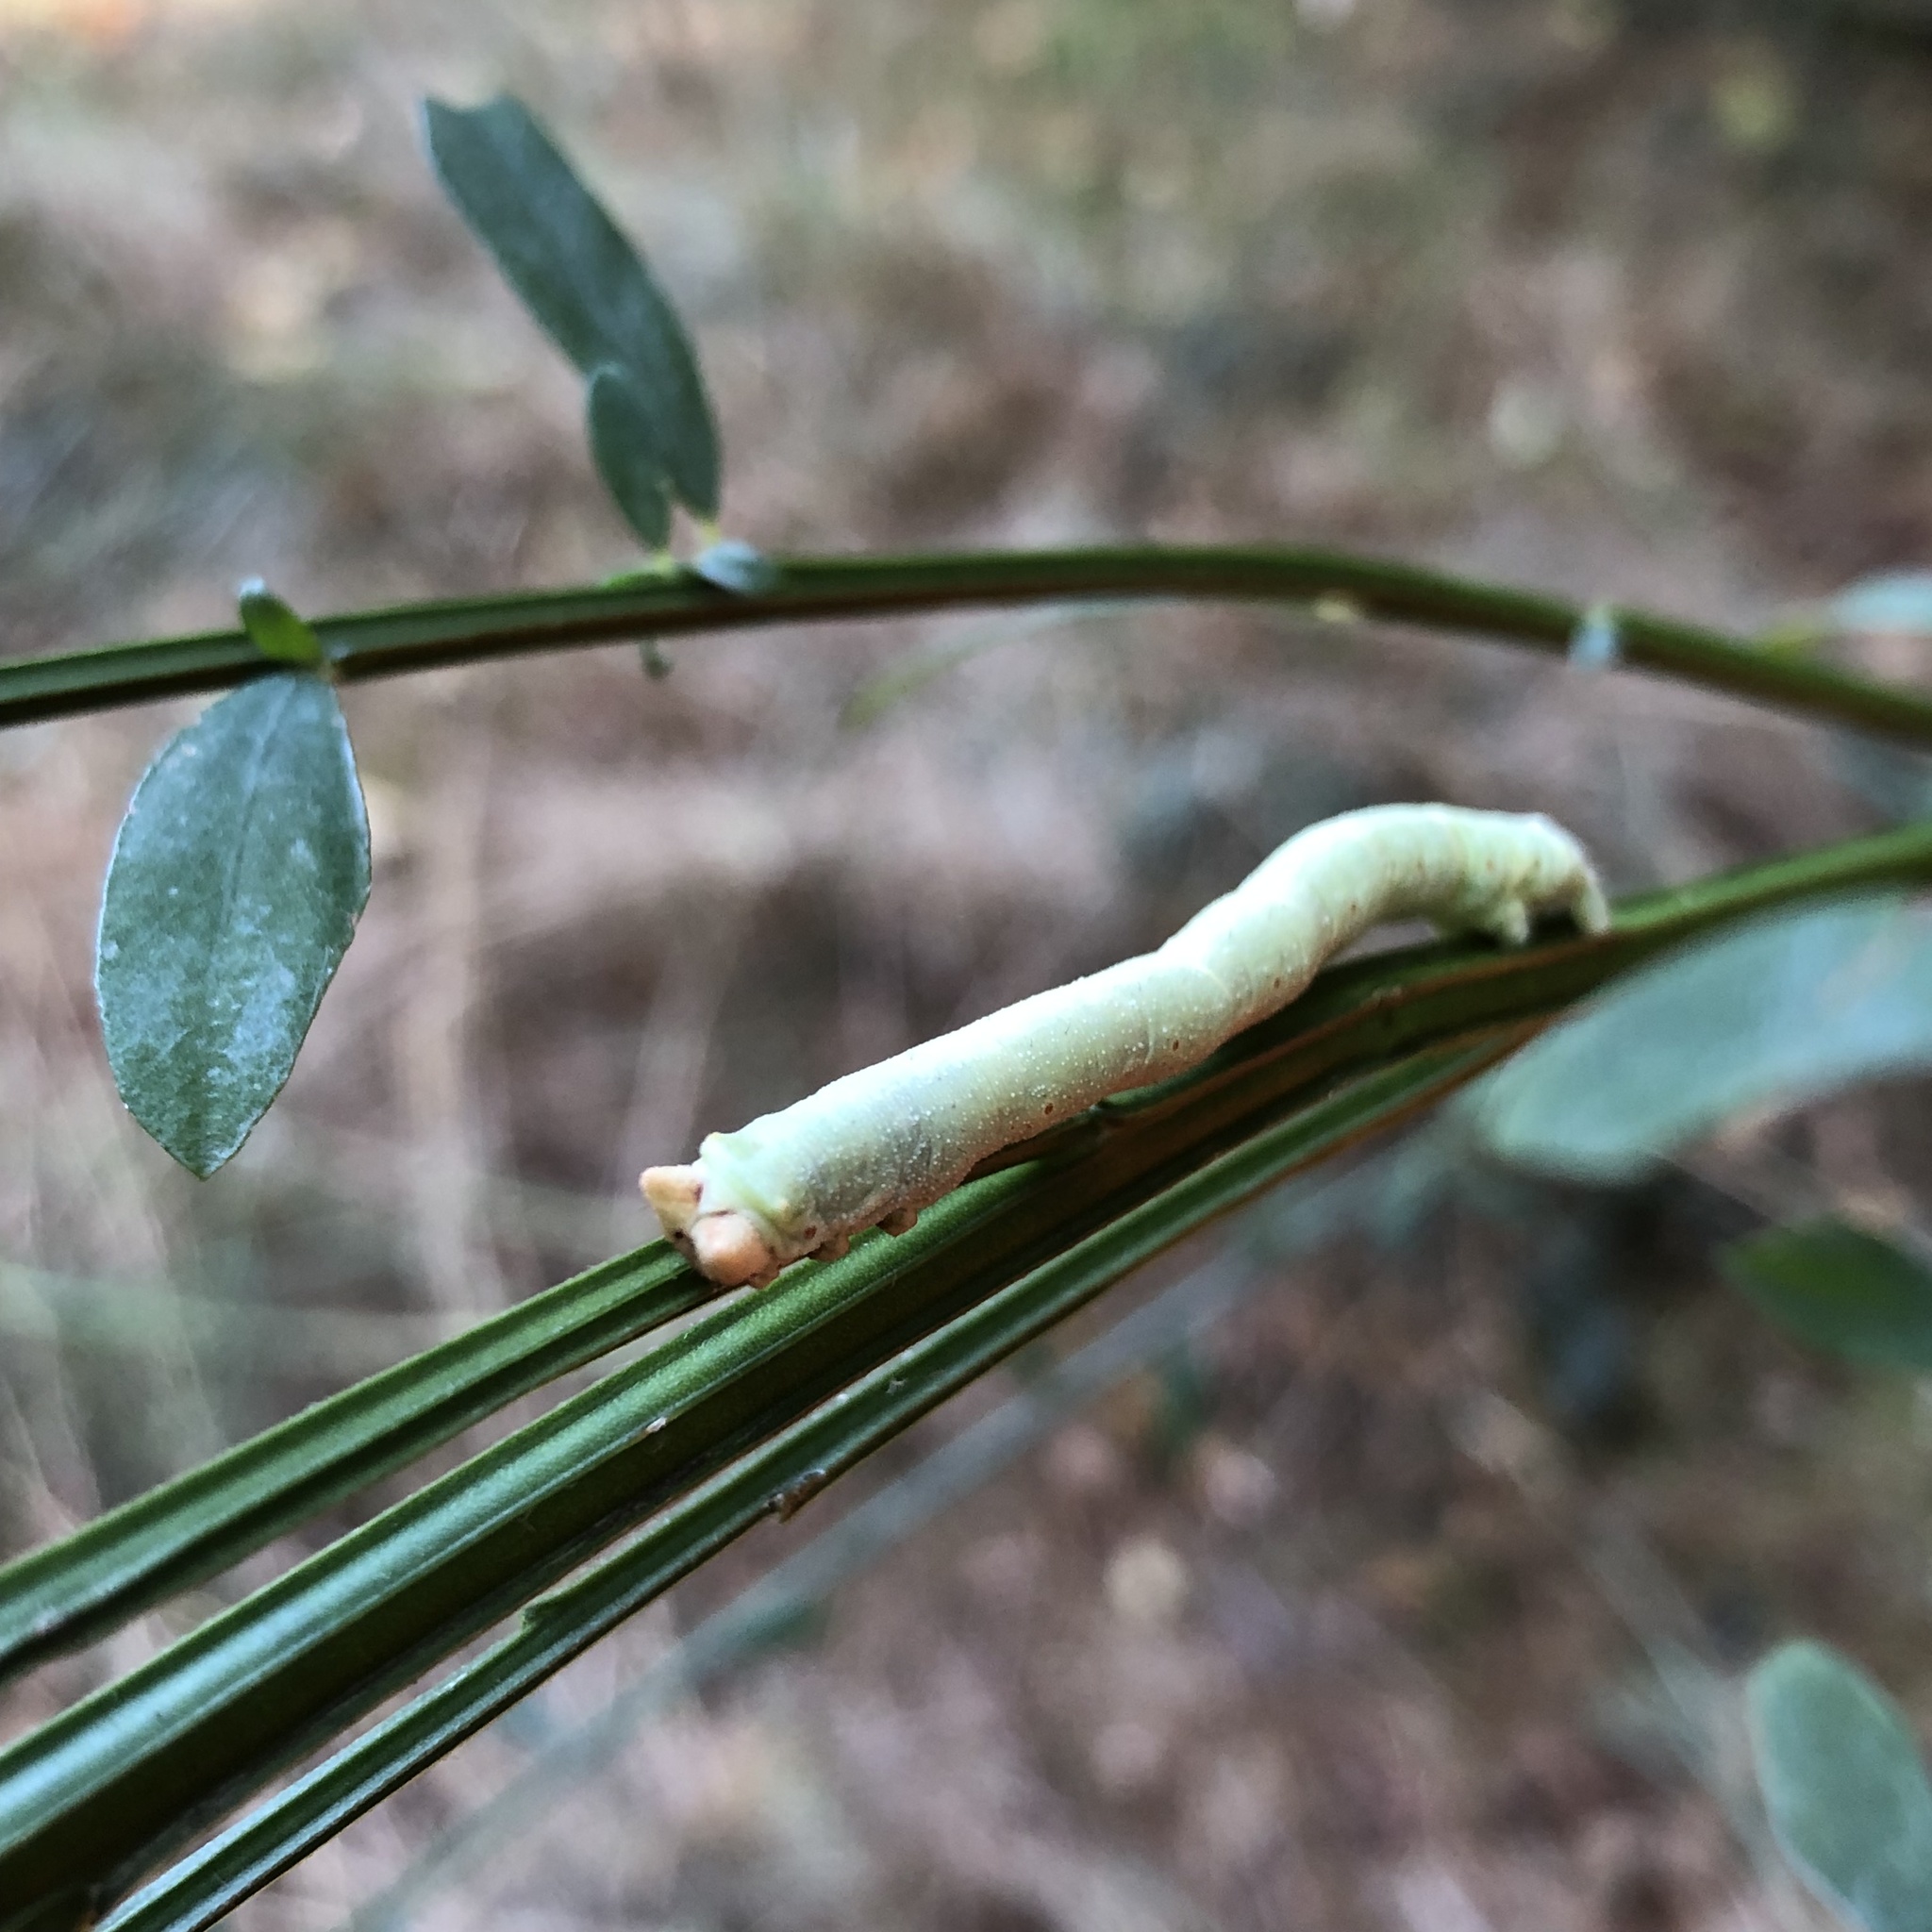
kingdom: Animalia
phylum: Arthropoda
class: Insecta
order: Lepidoptera
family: Geometridae
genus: Biston
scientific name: Biston betularia
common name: Peppered moth
